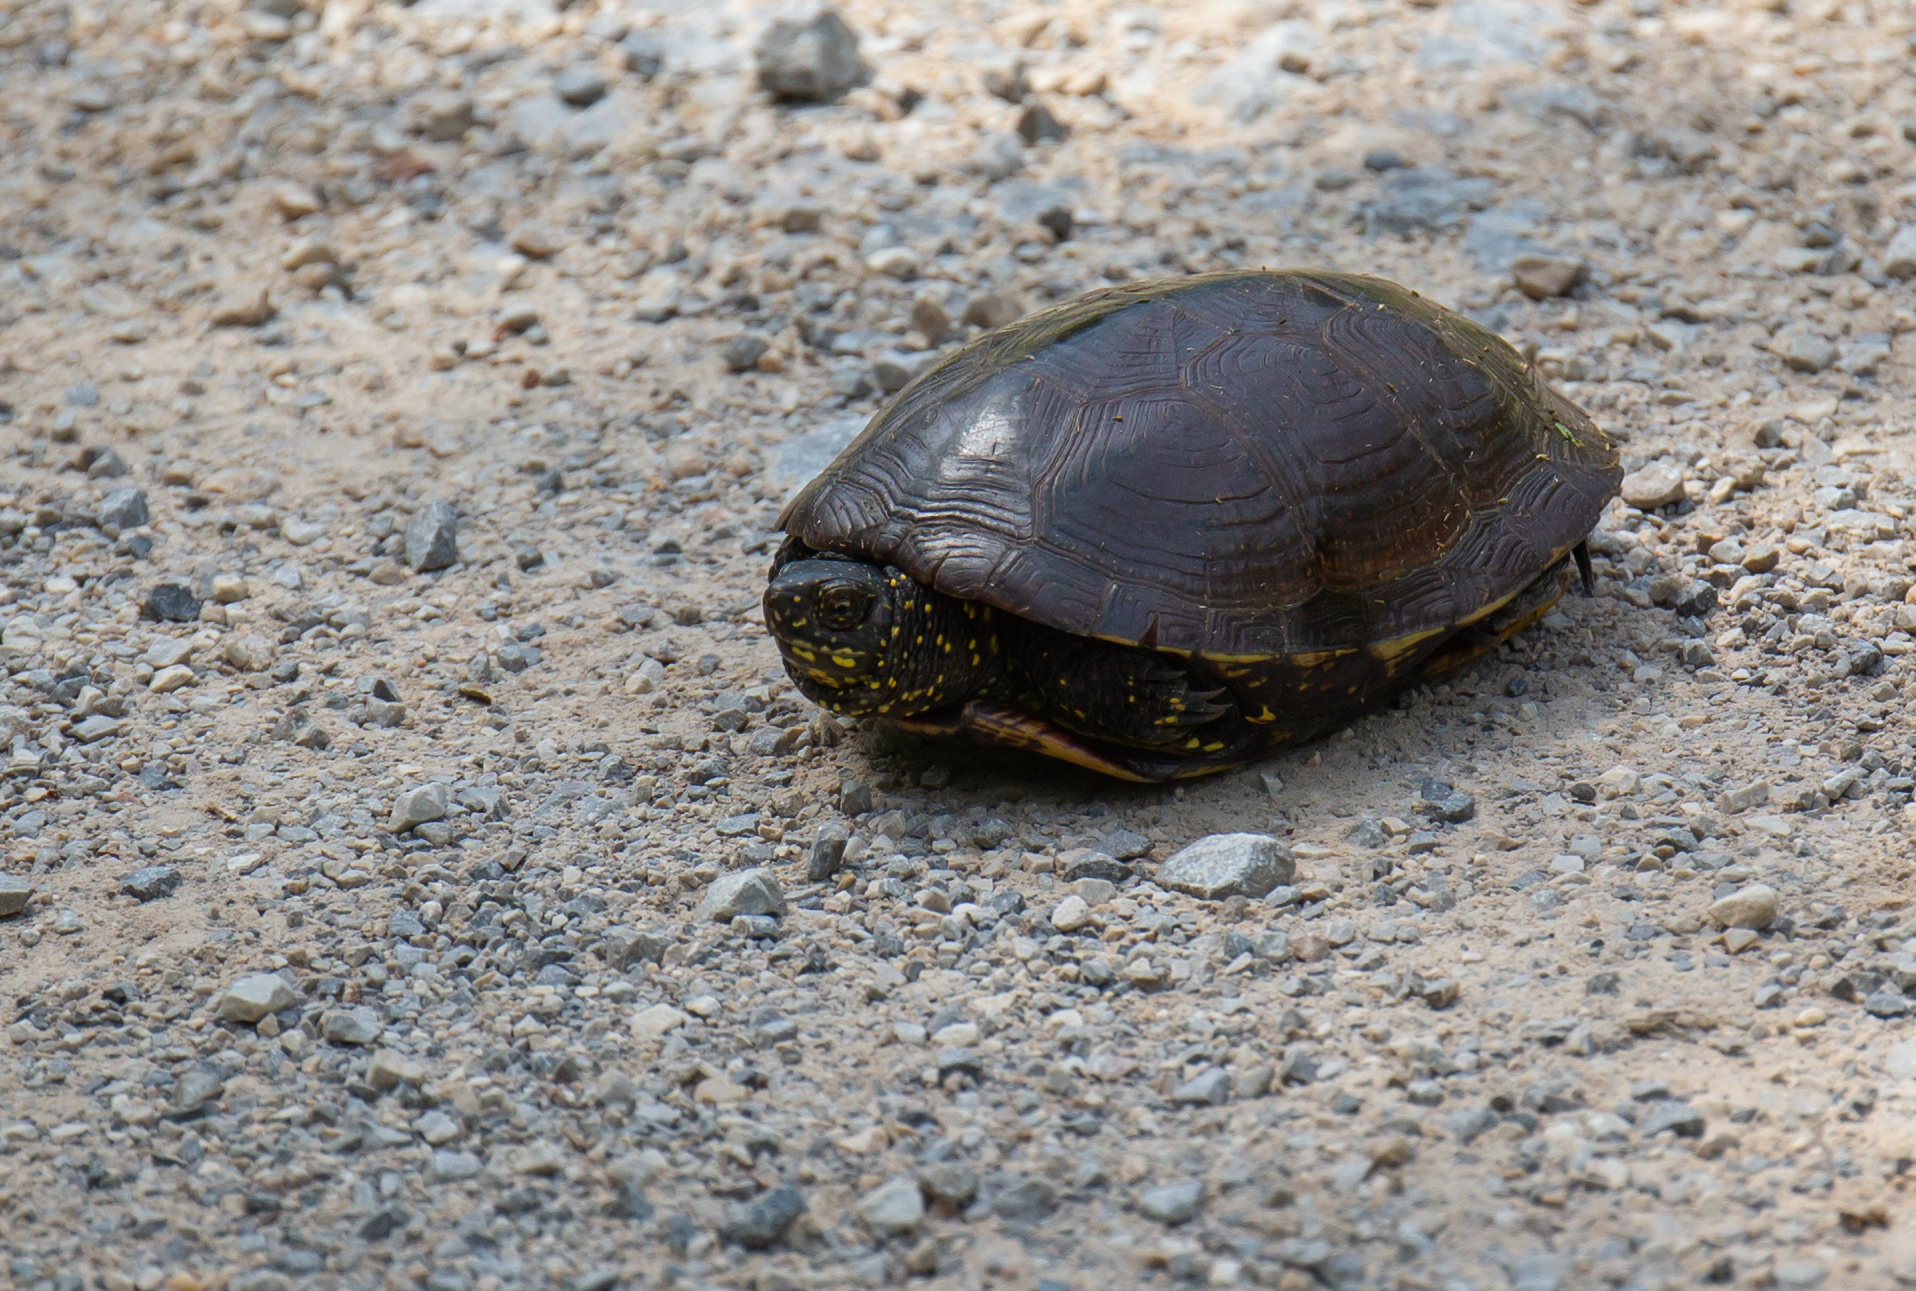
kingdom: Animalia
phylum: Chordata
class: Testudines
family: Emydidae
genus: Emys
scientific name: Emys orbicularis
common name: European pond turtle
